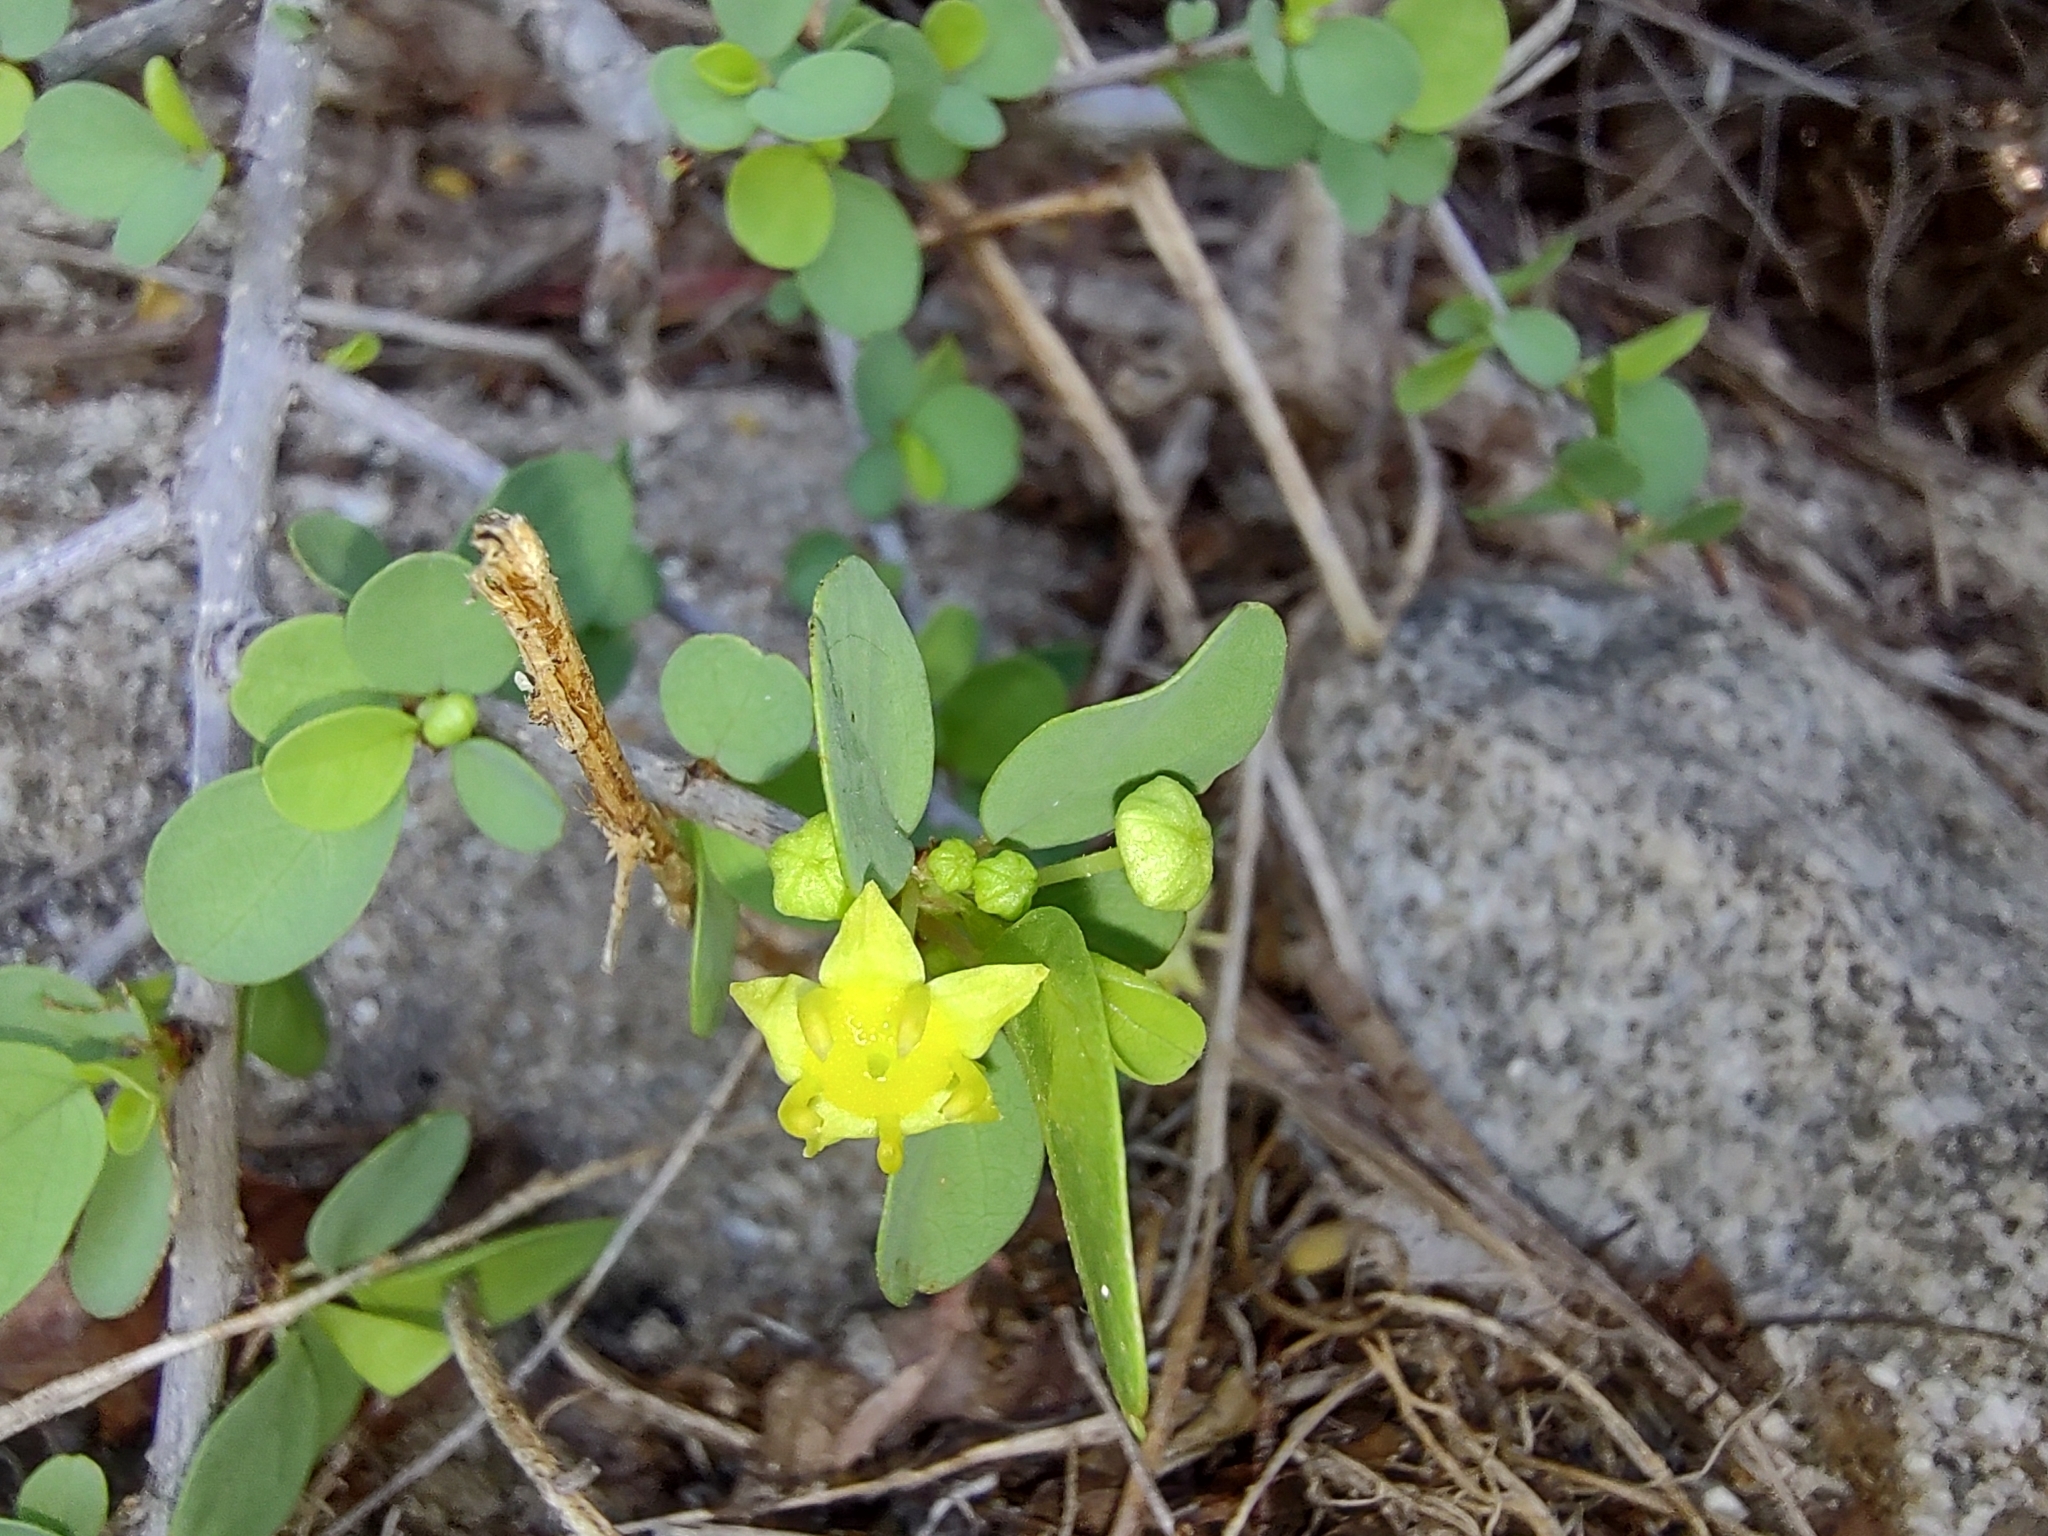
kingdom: Plantae
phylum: Tracheophyta
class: Magnoliopsida
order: Rosales
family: Rhamnaceae
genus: Colubrina
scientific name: Colubrina viridis
